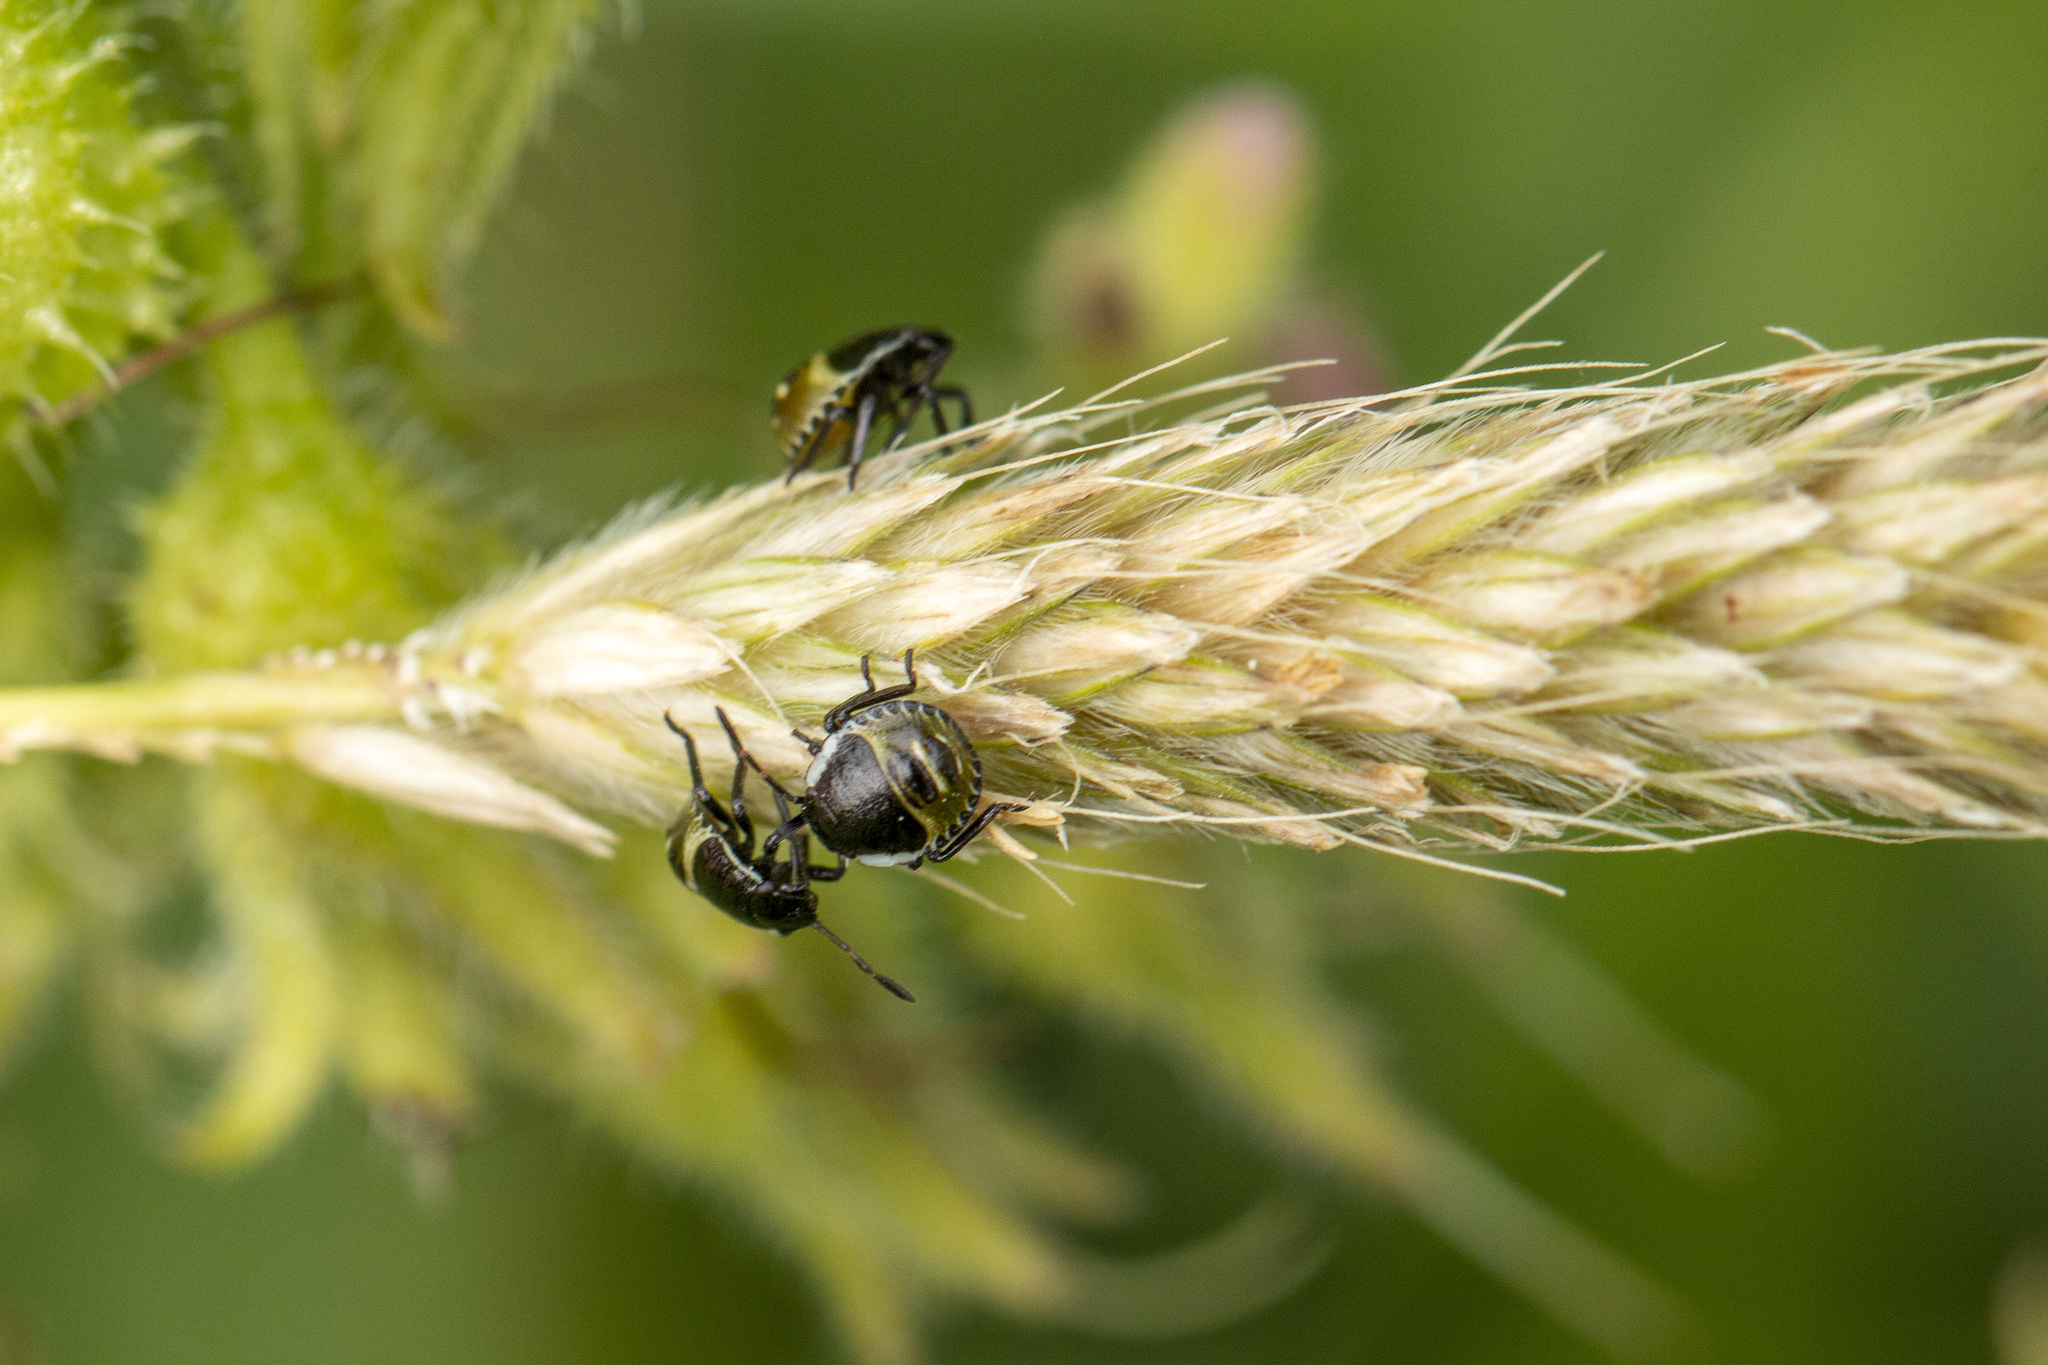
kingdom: Animalia
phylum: Arthropoda
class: Insecta
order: Hemiptera
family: Pentatomidae
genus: Palomena
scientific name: Palomena prasina
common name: Green shieldbug
